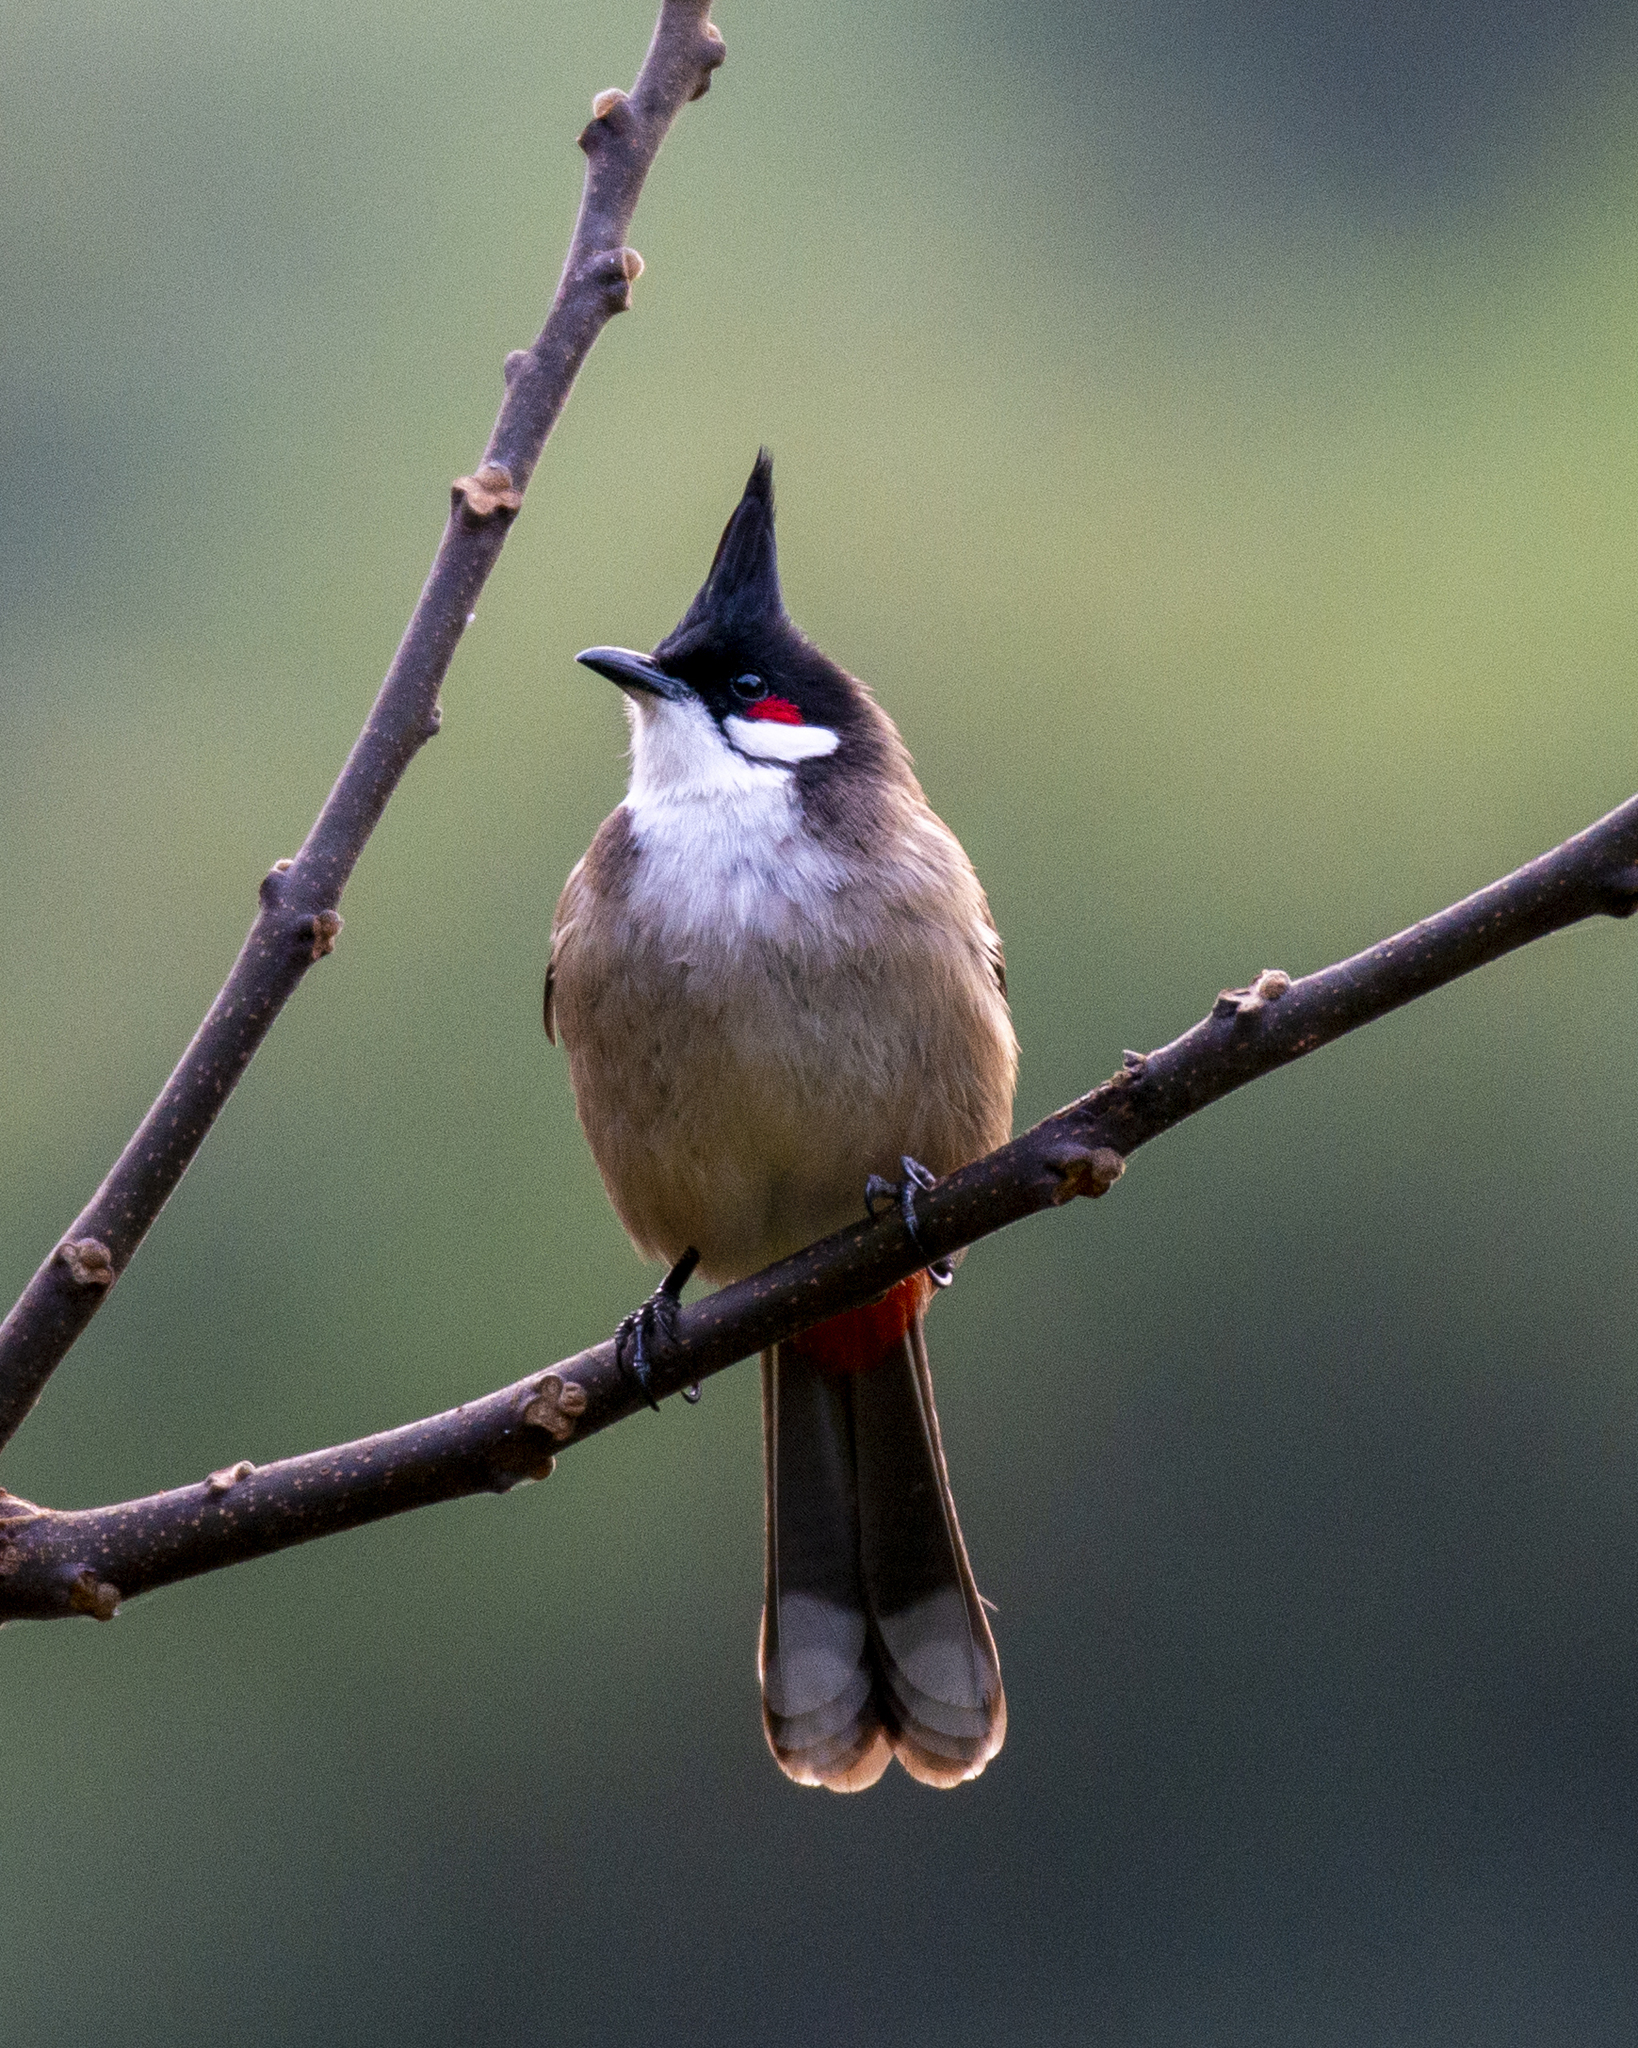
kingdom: Animalia
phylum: Chordata
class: Aves
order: Passeriformes
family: Pycnonotidae
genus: Pycnonotus
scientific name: Pycnonotus jocosus
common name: Red-whiskered bulbul
